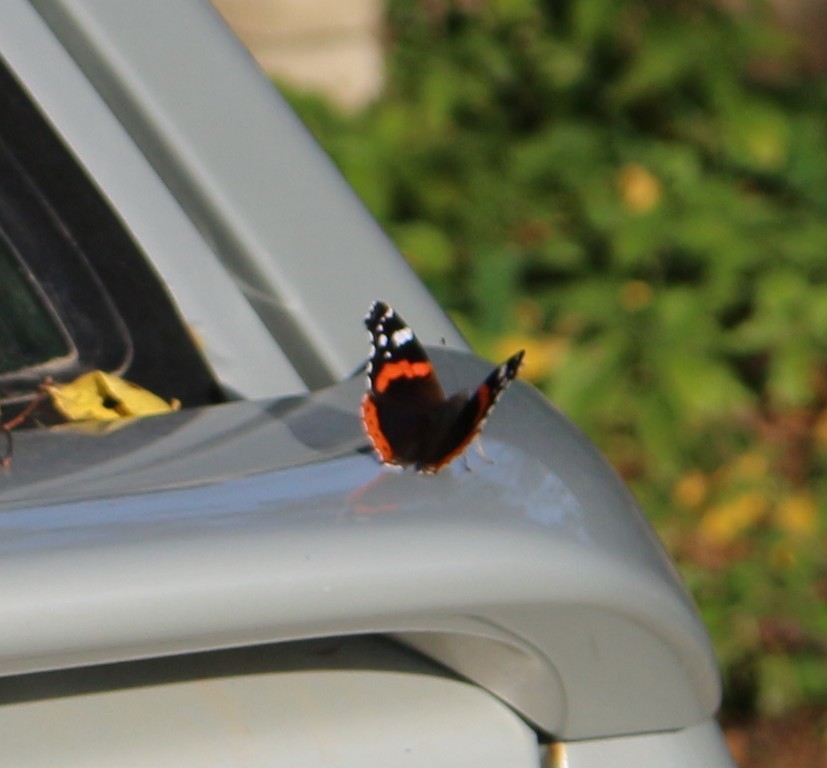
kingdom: Animalia
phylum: Arthropoda
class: Insecta
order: Lepidoptera
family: Nymphalidae
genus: Vanessa
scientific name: Vanessa atalanta
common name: Red admiral
